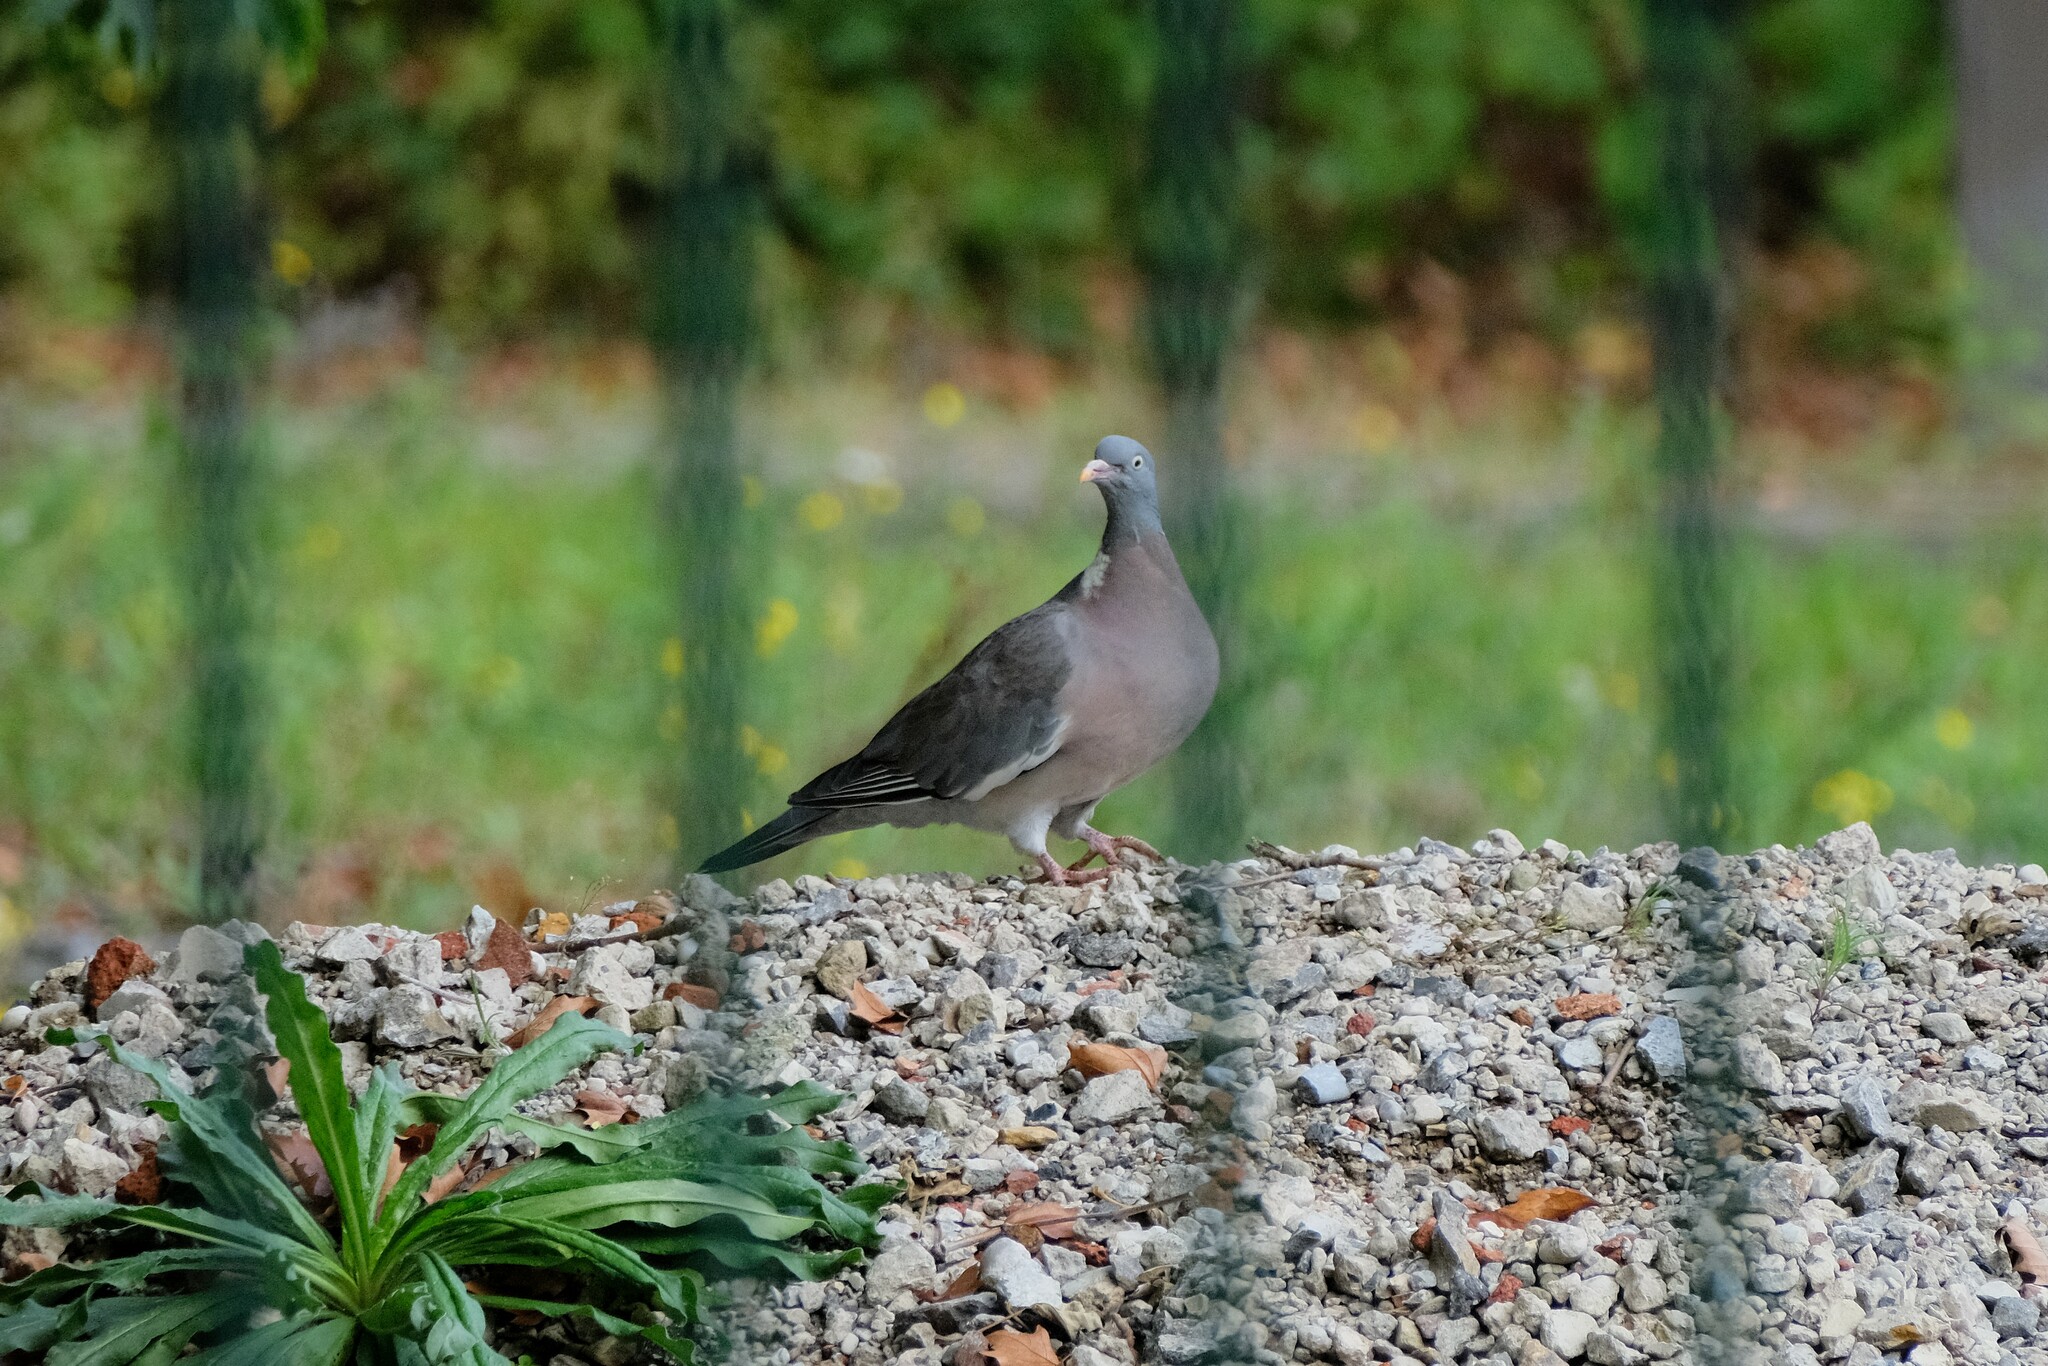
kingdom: Animalia
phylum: Chordata
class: Aves
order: Columbiformes
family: Columbidae
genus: Columba
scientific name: Columba palumbus
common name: Common wood pigeon
